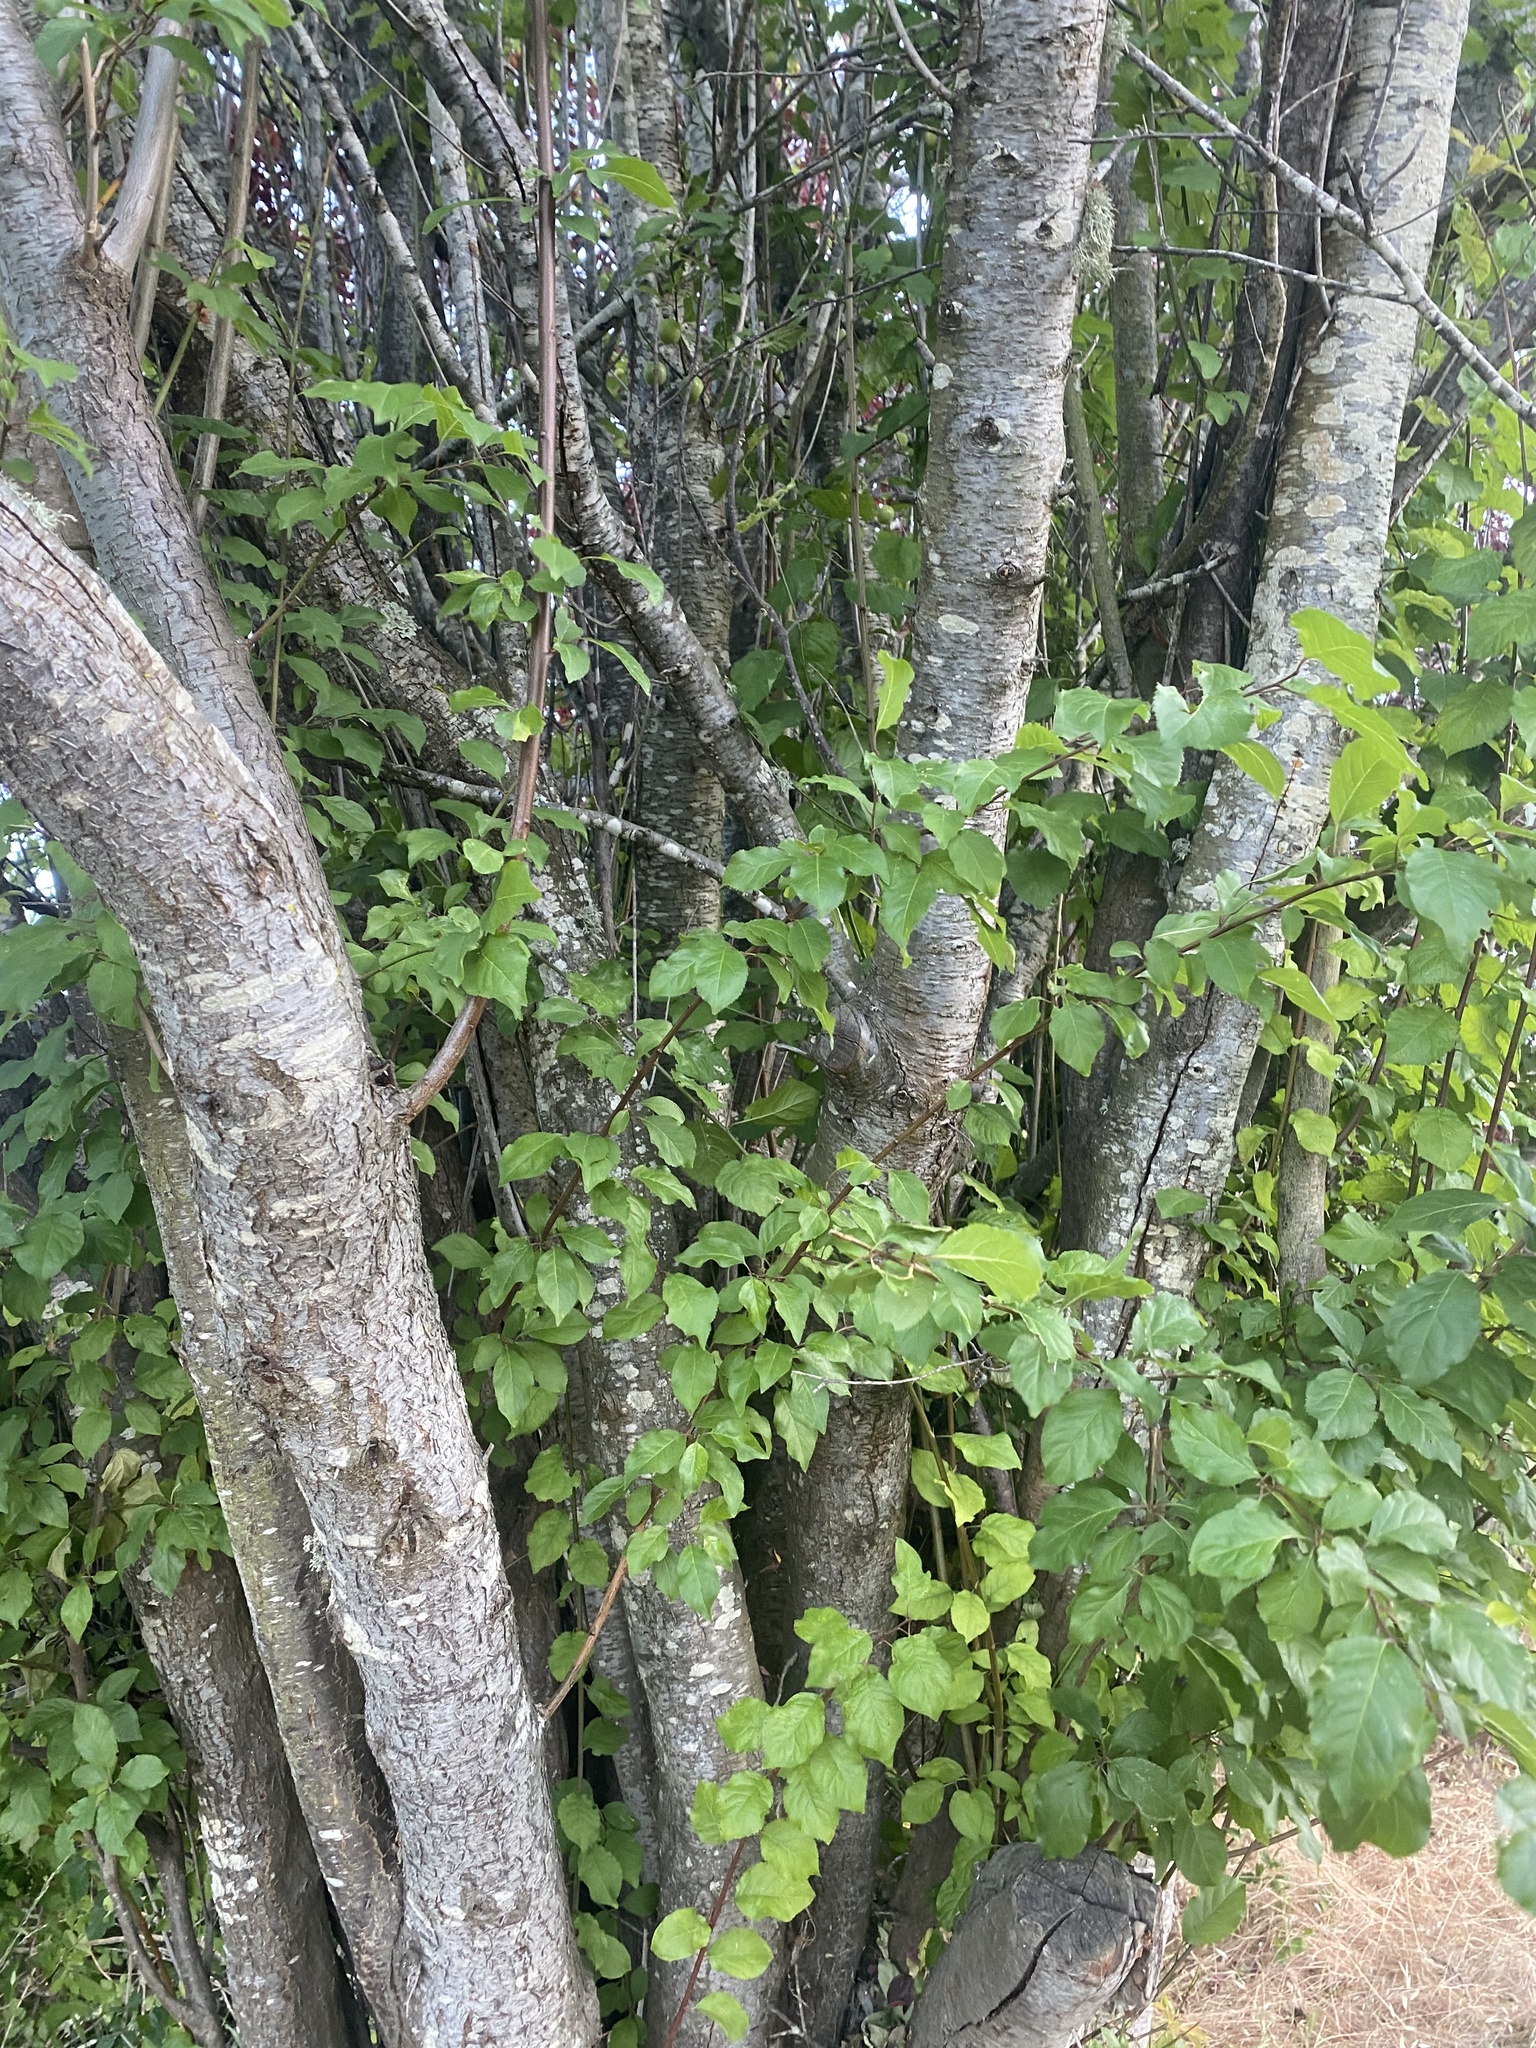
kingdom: Plantae
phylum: Tracheophyta
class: Magnoliopsida
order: Rosales
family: Rosaceae
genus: Prunus
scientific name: Prunus cerasifera
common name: Cherry plum
